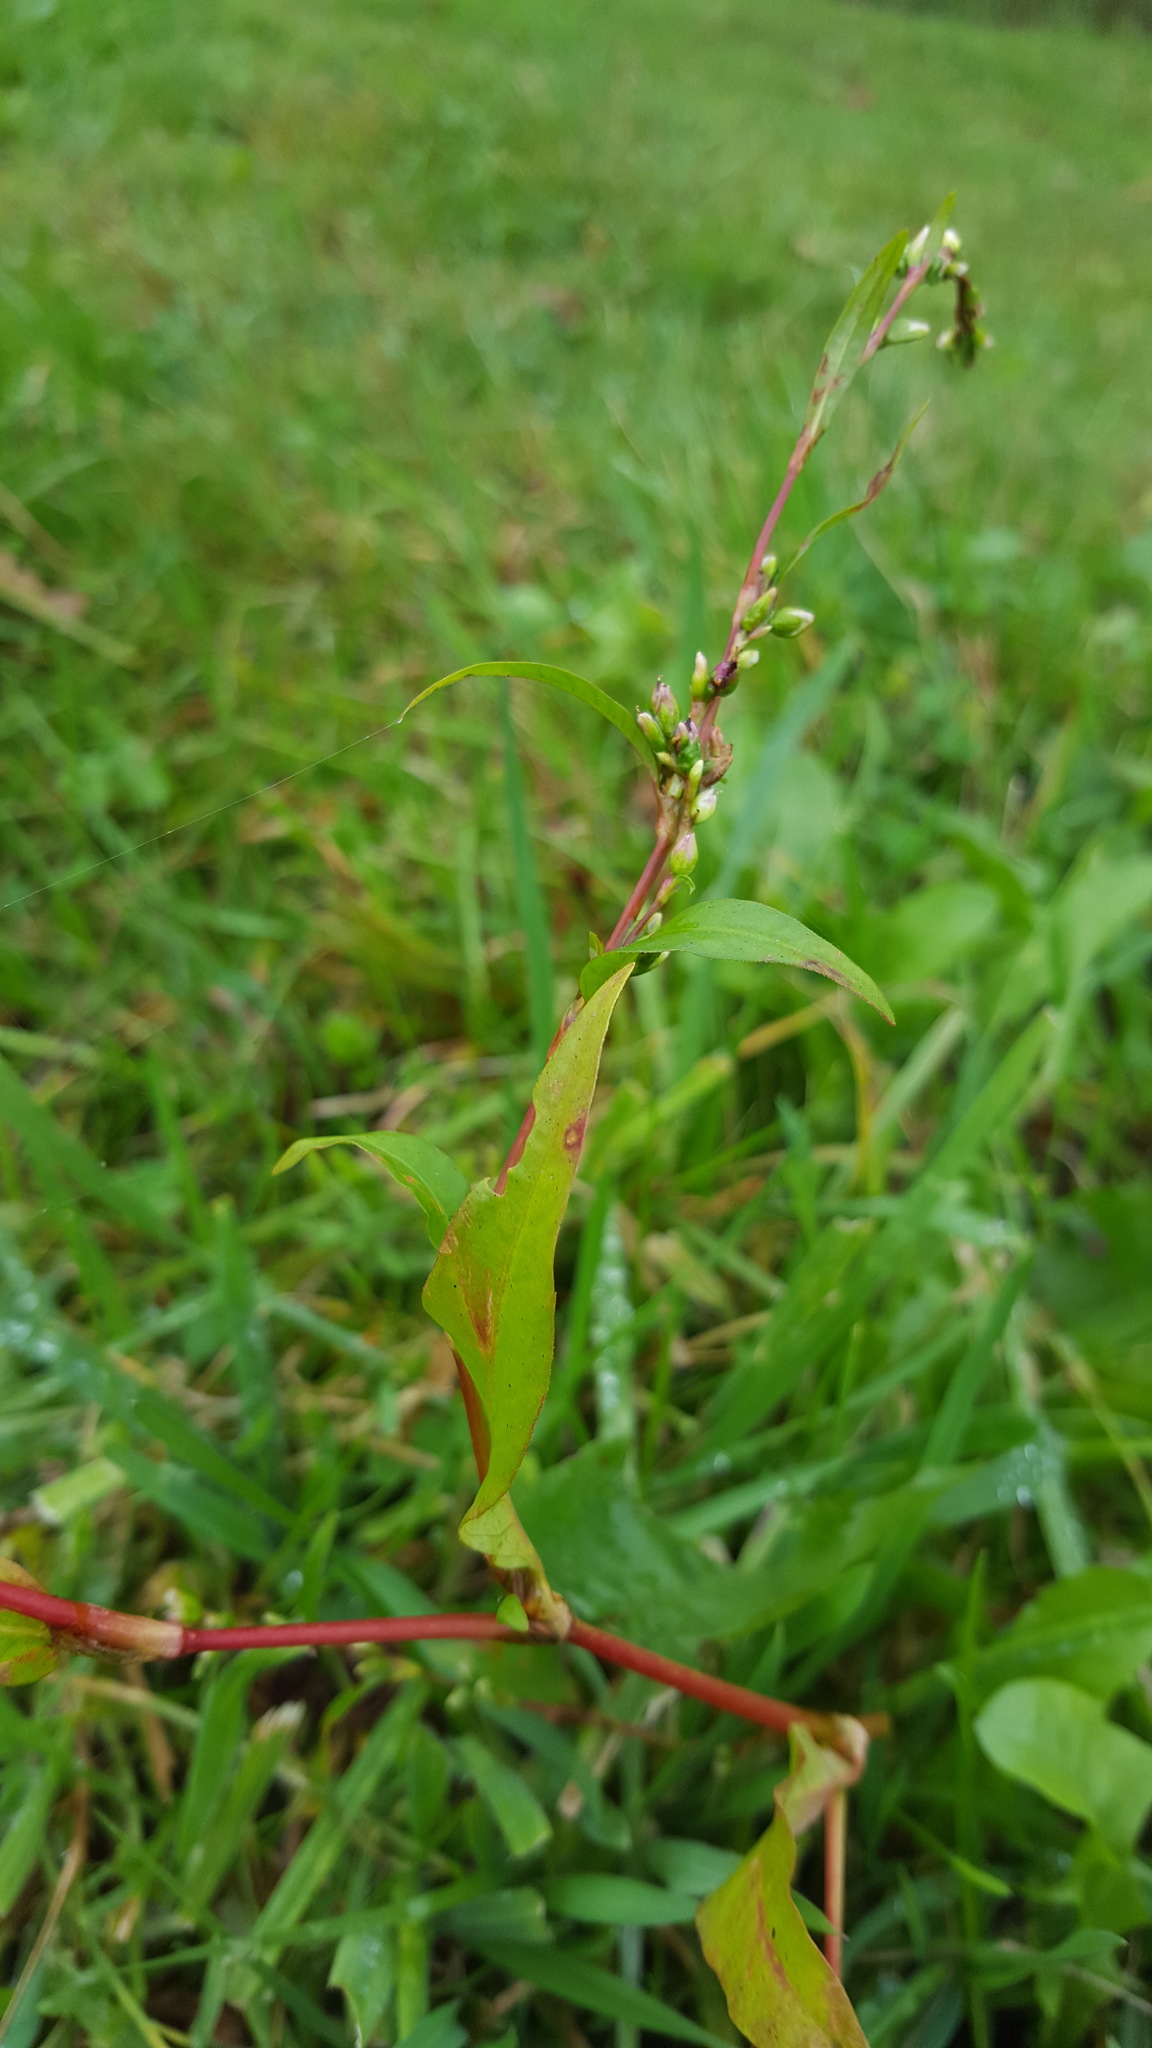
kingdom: Plantae
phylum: Tracheophyta
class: Magnoliopsida
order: Caryophyllales
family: Polygonaceae
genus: Persicaria
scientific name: Persicaria hydropiper
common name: Water-pepper
